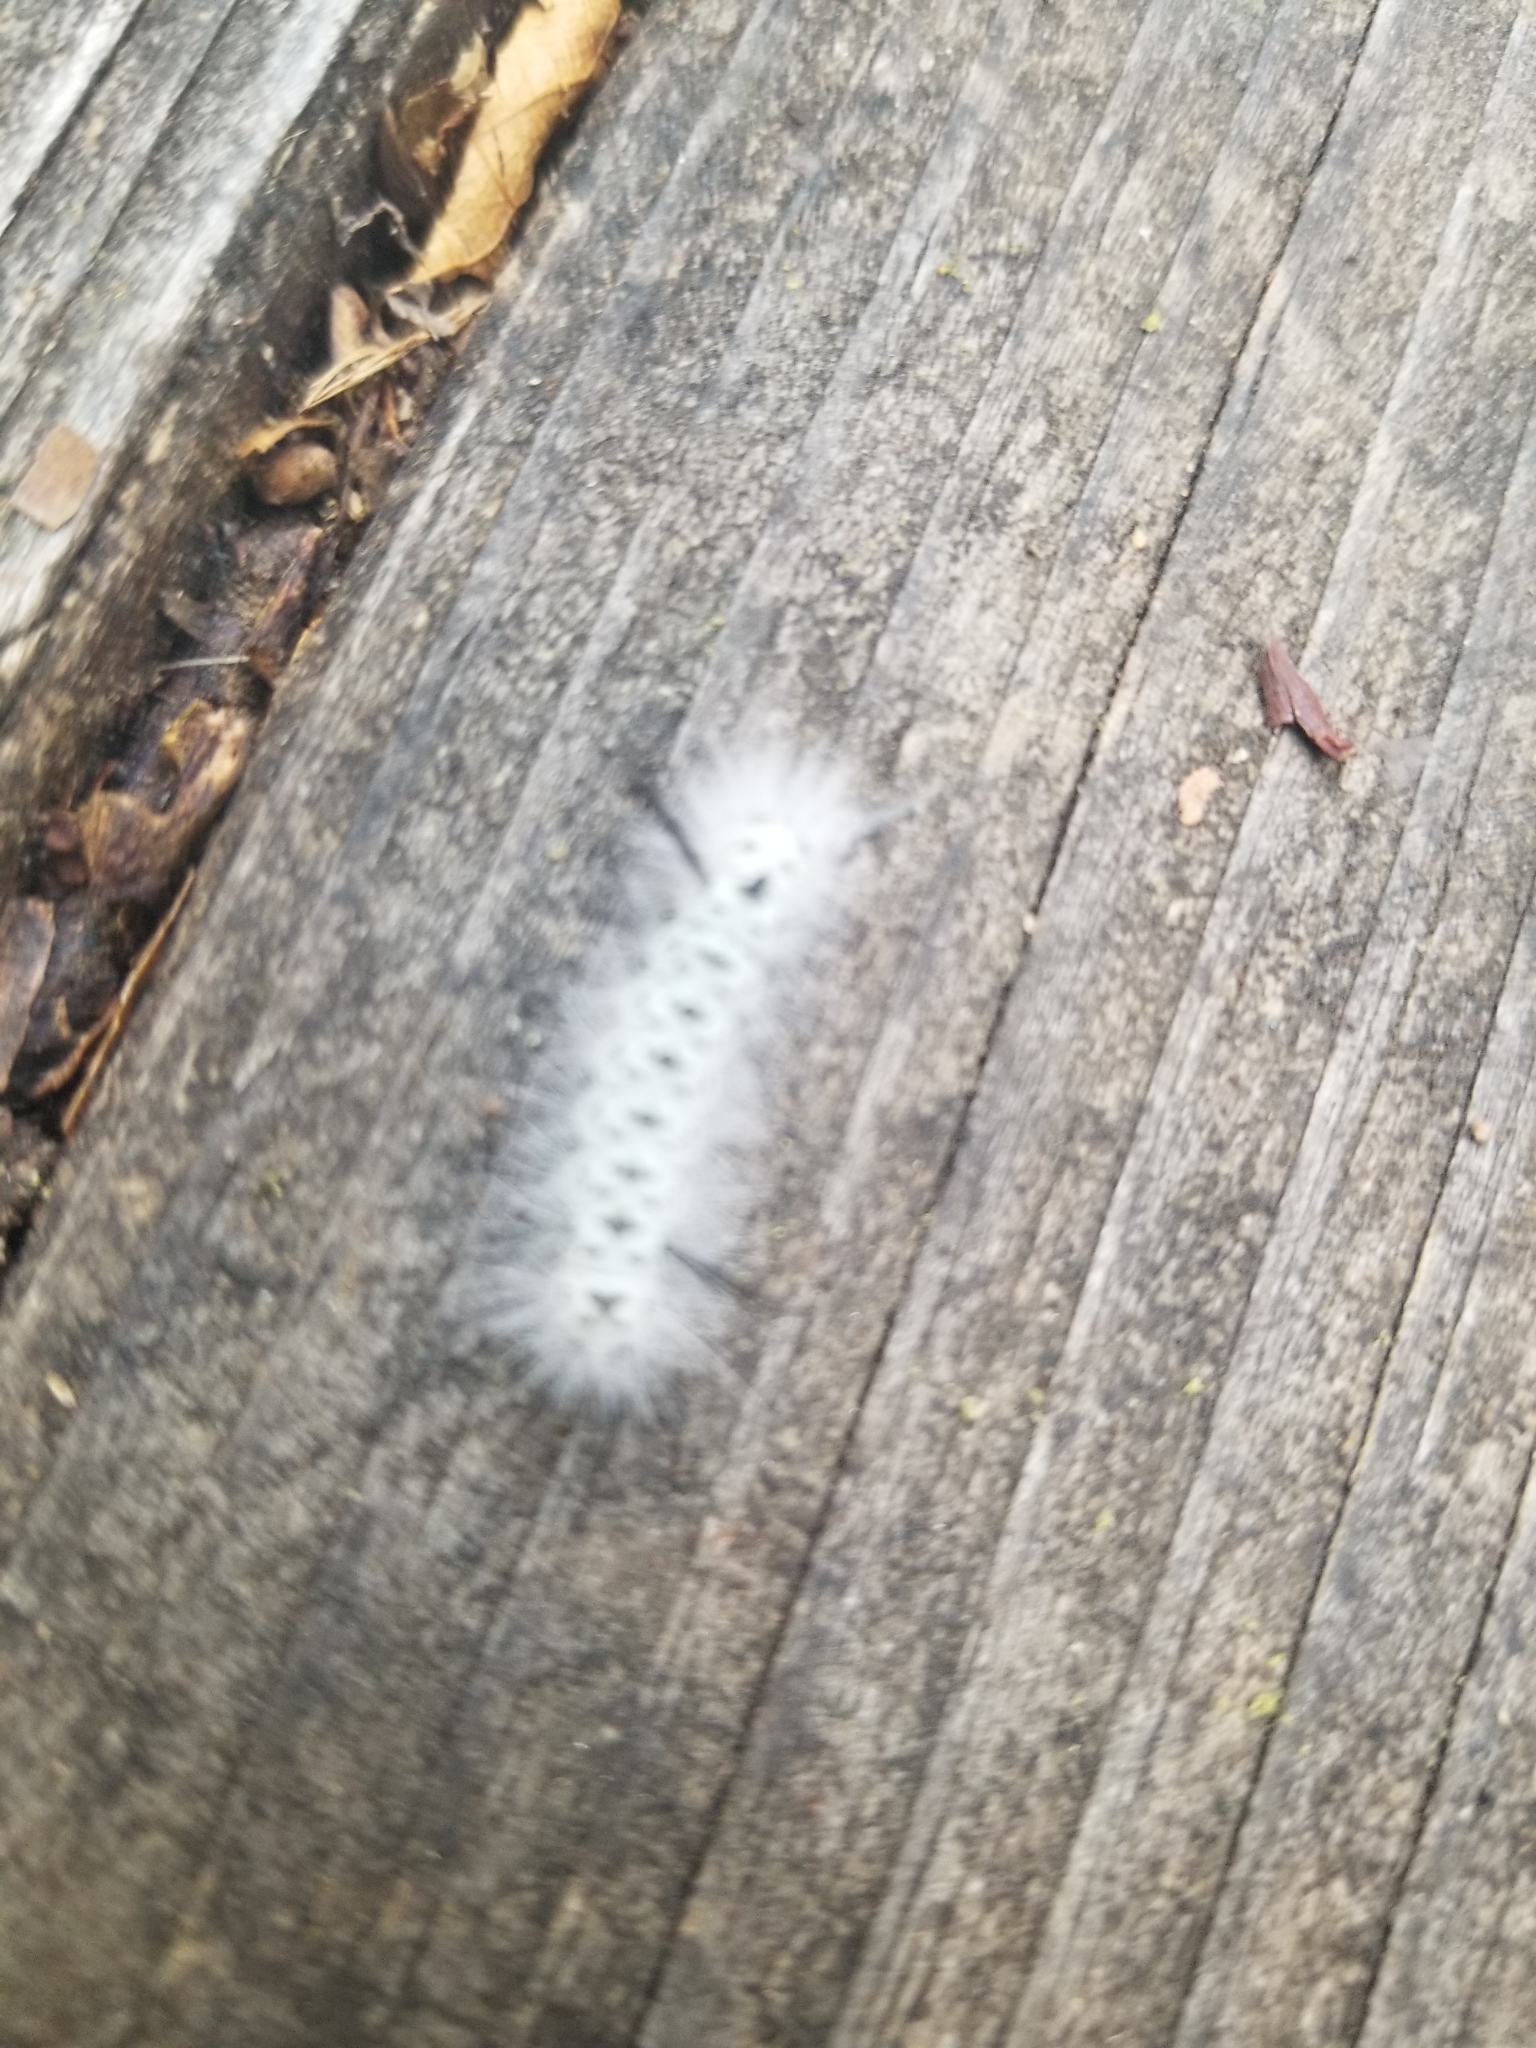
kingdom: Animalia
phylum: Arthropoda
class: Insecta
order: Lepidoptera
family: Erebidae
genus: Lophocampa
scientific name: Lophocampa caryae
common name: Hickory tussock moth
